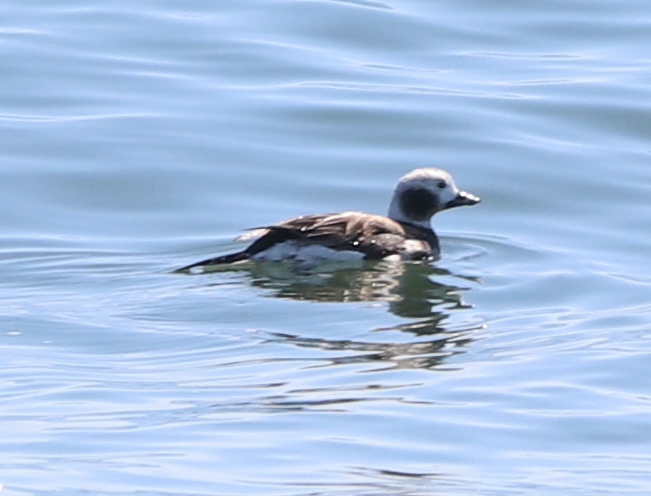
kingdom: Animalia
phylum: Chordata
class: Aves
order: Anseriformes
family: Anatidae
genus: Clangula
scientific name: Clangula hyemalis
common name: Long-tailed duck
